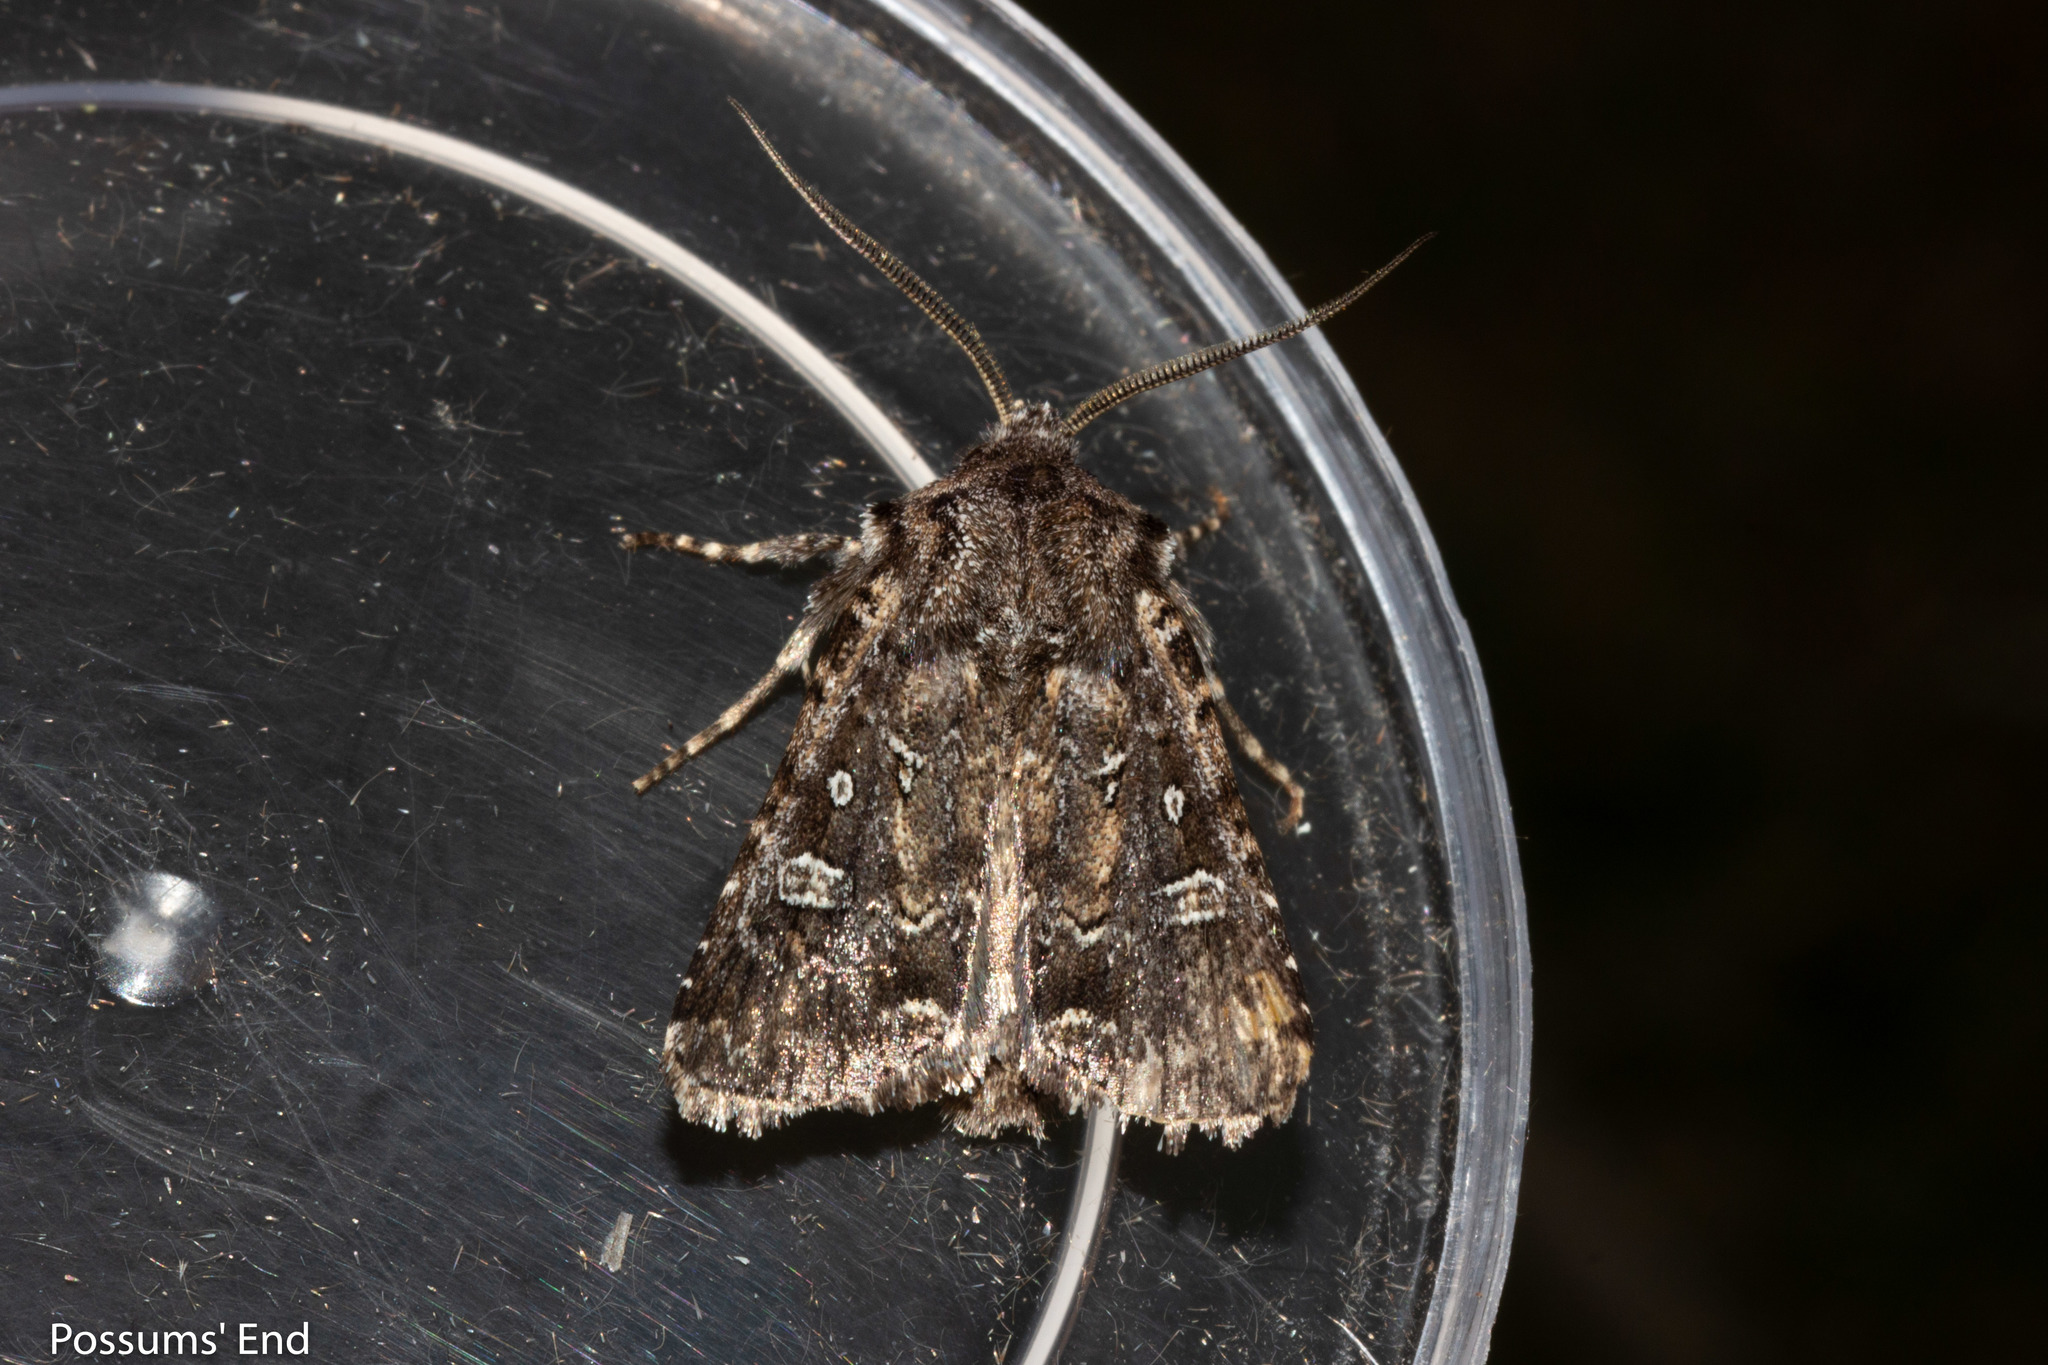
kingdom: Animalia
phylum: Arthropoda
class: Insecta
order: Lepidoptera
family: Noctuidae
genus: Ichneutica
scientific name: Ichneutica lithias
